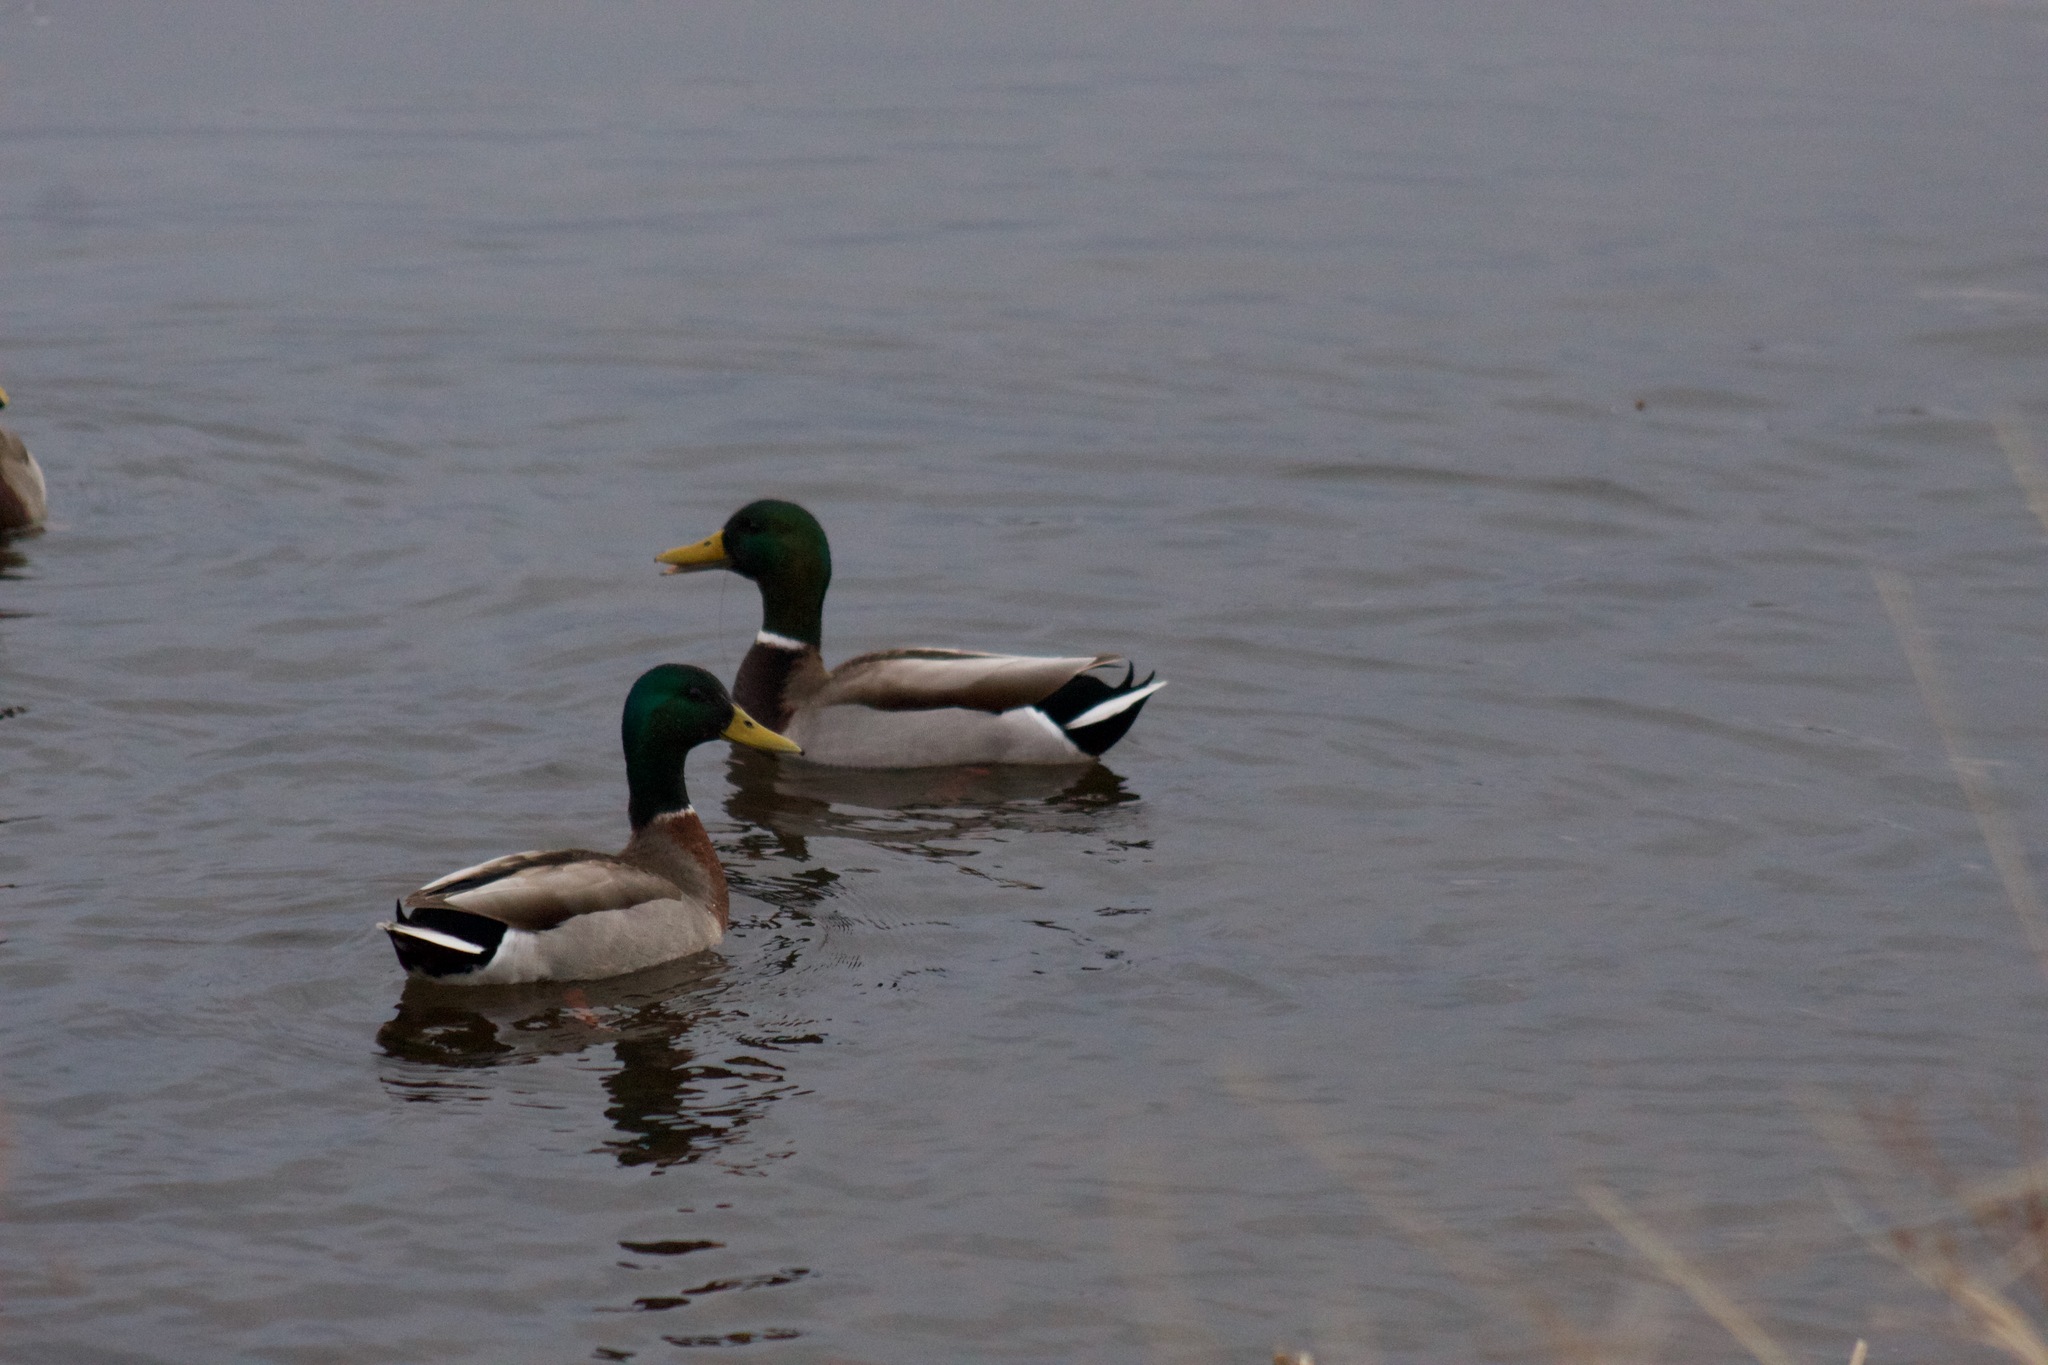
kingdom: Animalia
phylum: Chordata
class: Aves
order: Anseriformes
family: Anatidae
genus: Anas
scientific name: Anas platyrhynchos
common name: Mallard
